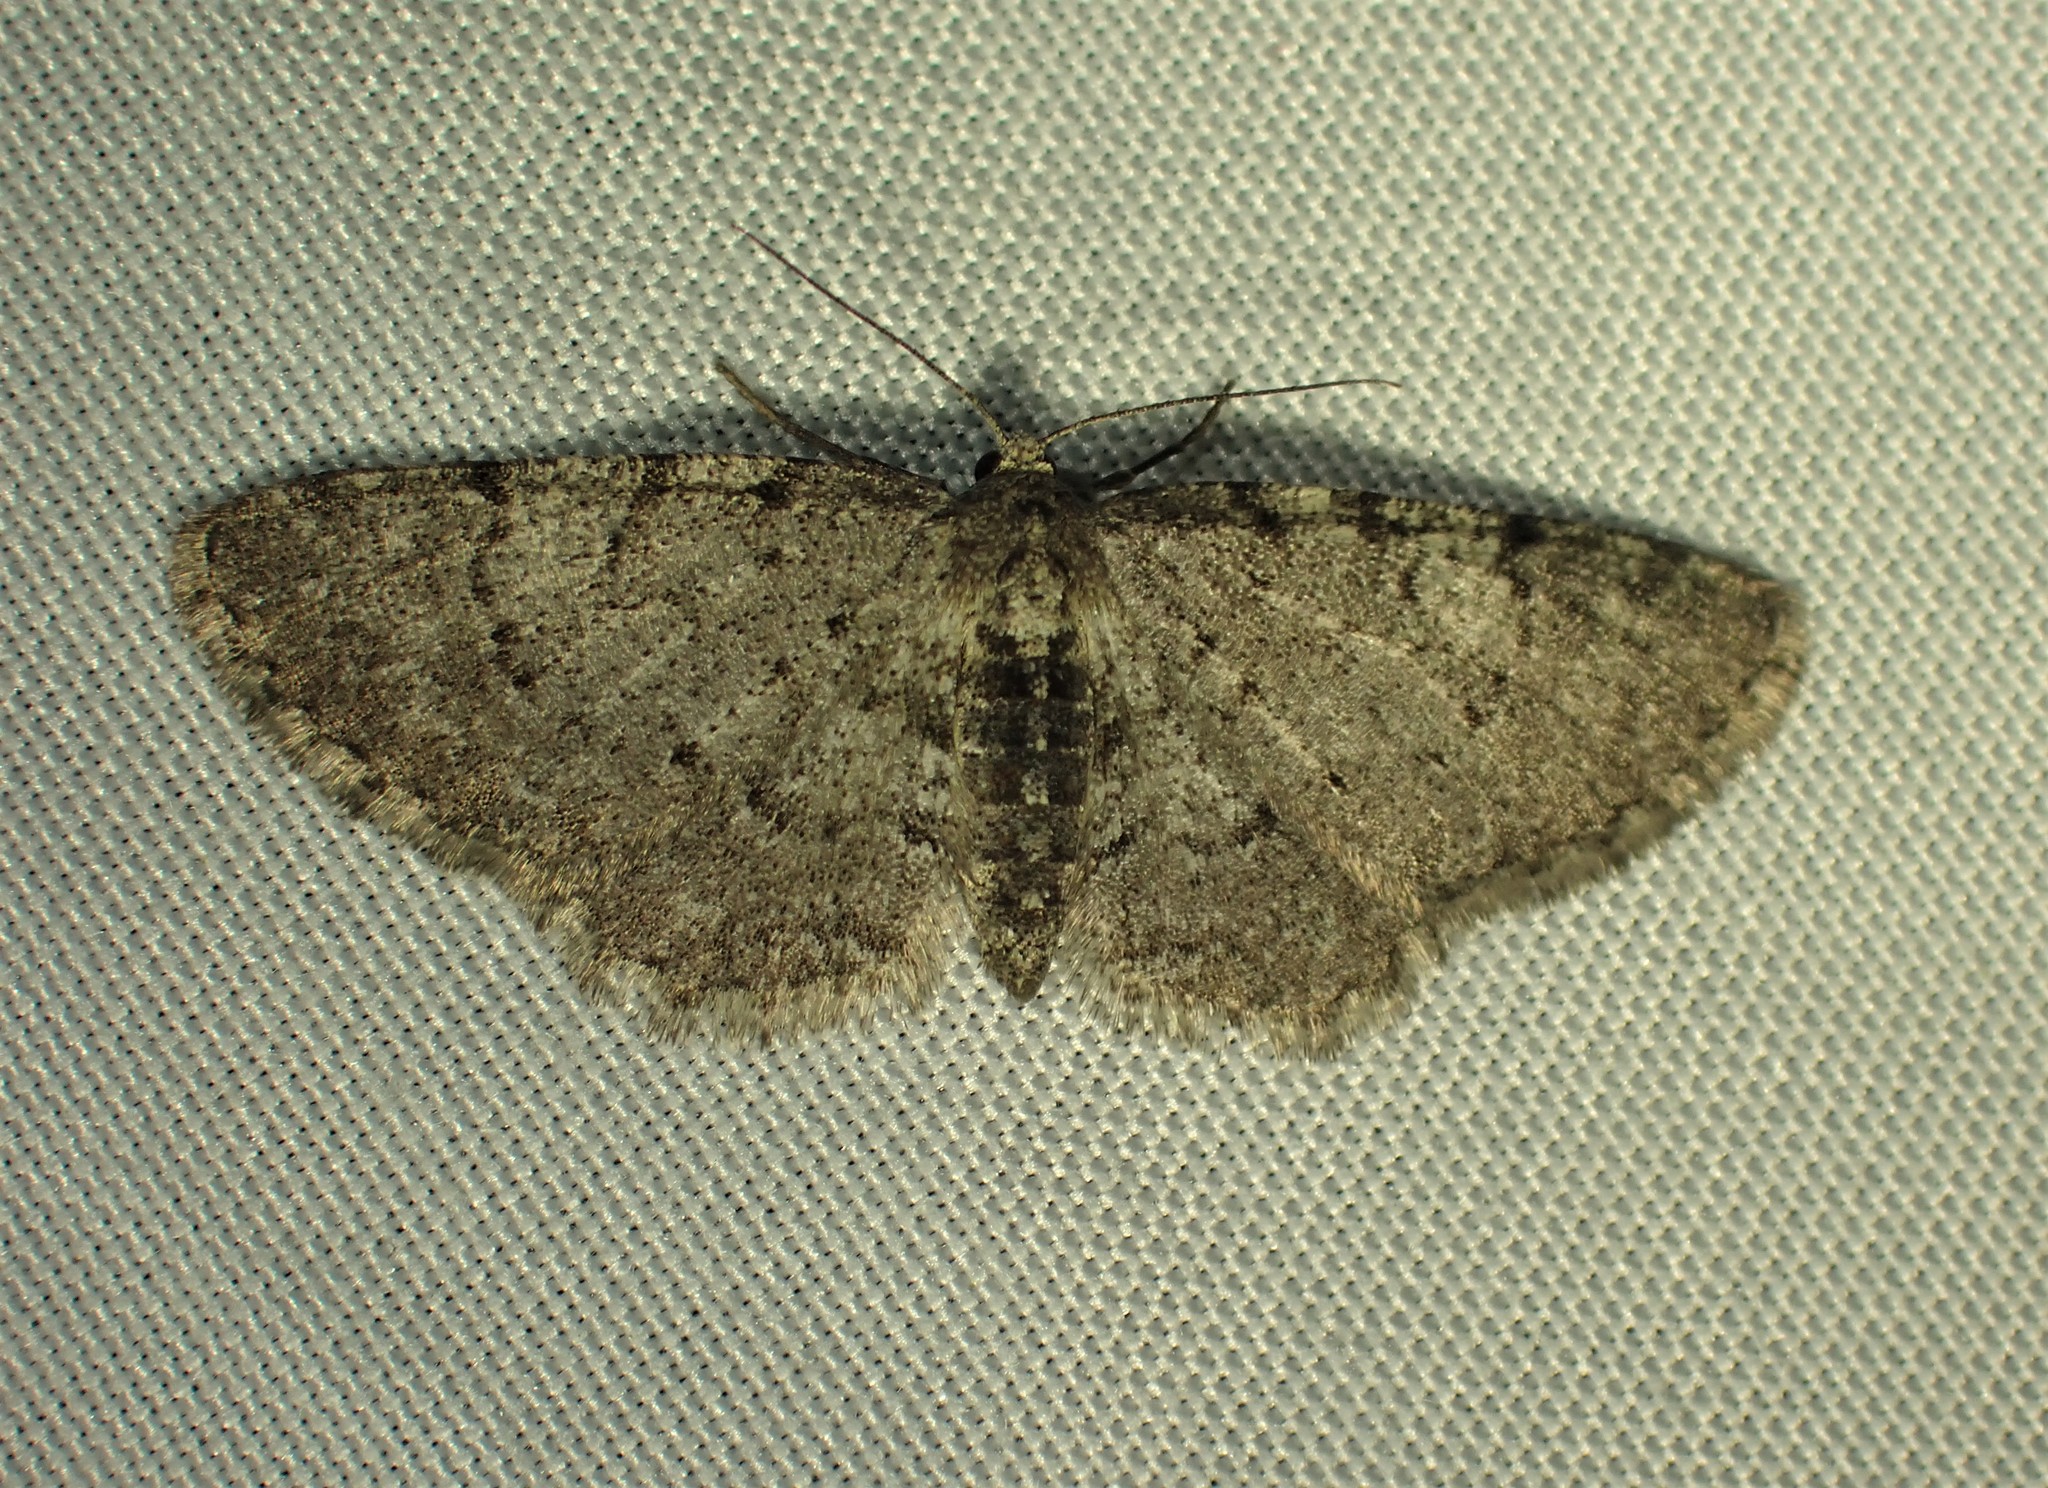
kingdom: Animalia
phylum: Arthropoda
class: Insecta
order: Lepidoptera
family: Geometridae
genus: Aethalura
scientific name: Aethalura intertexta
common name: Four-barred gray
